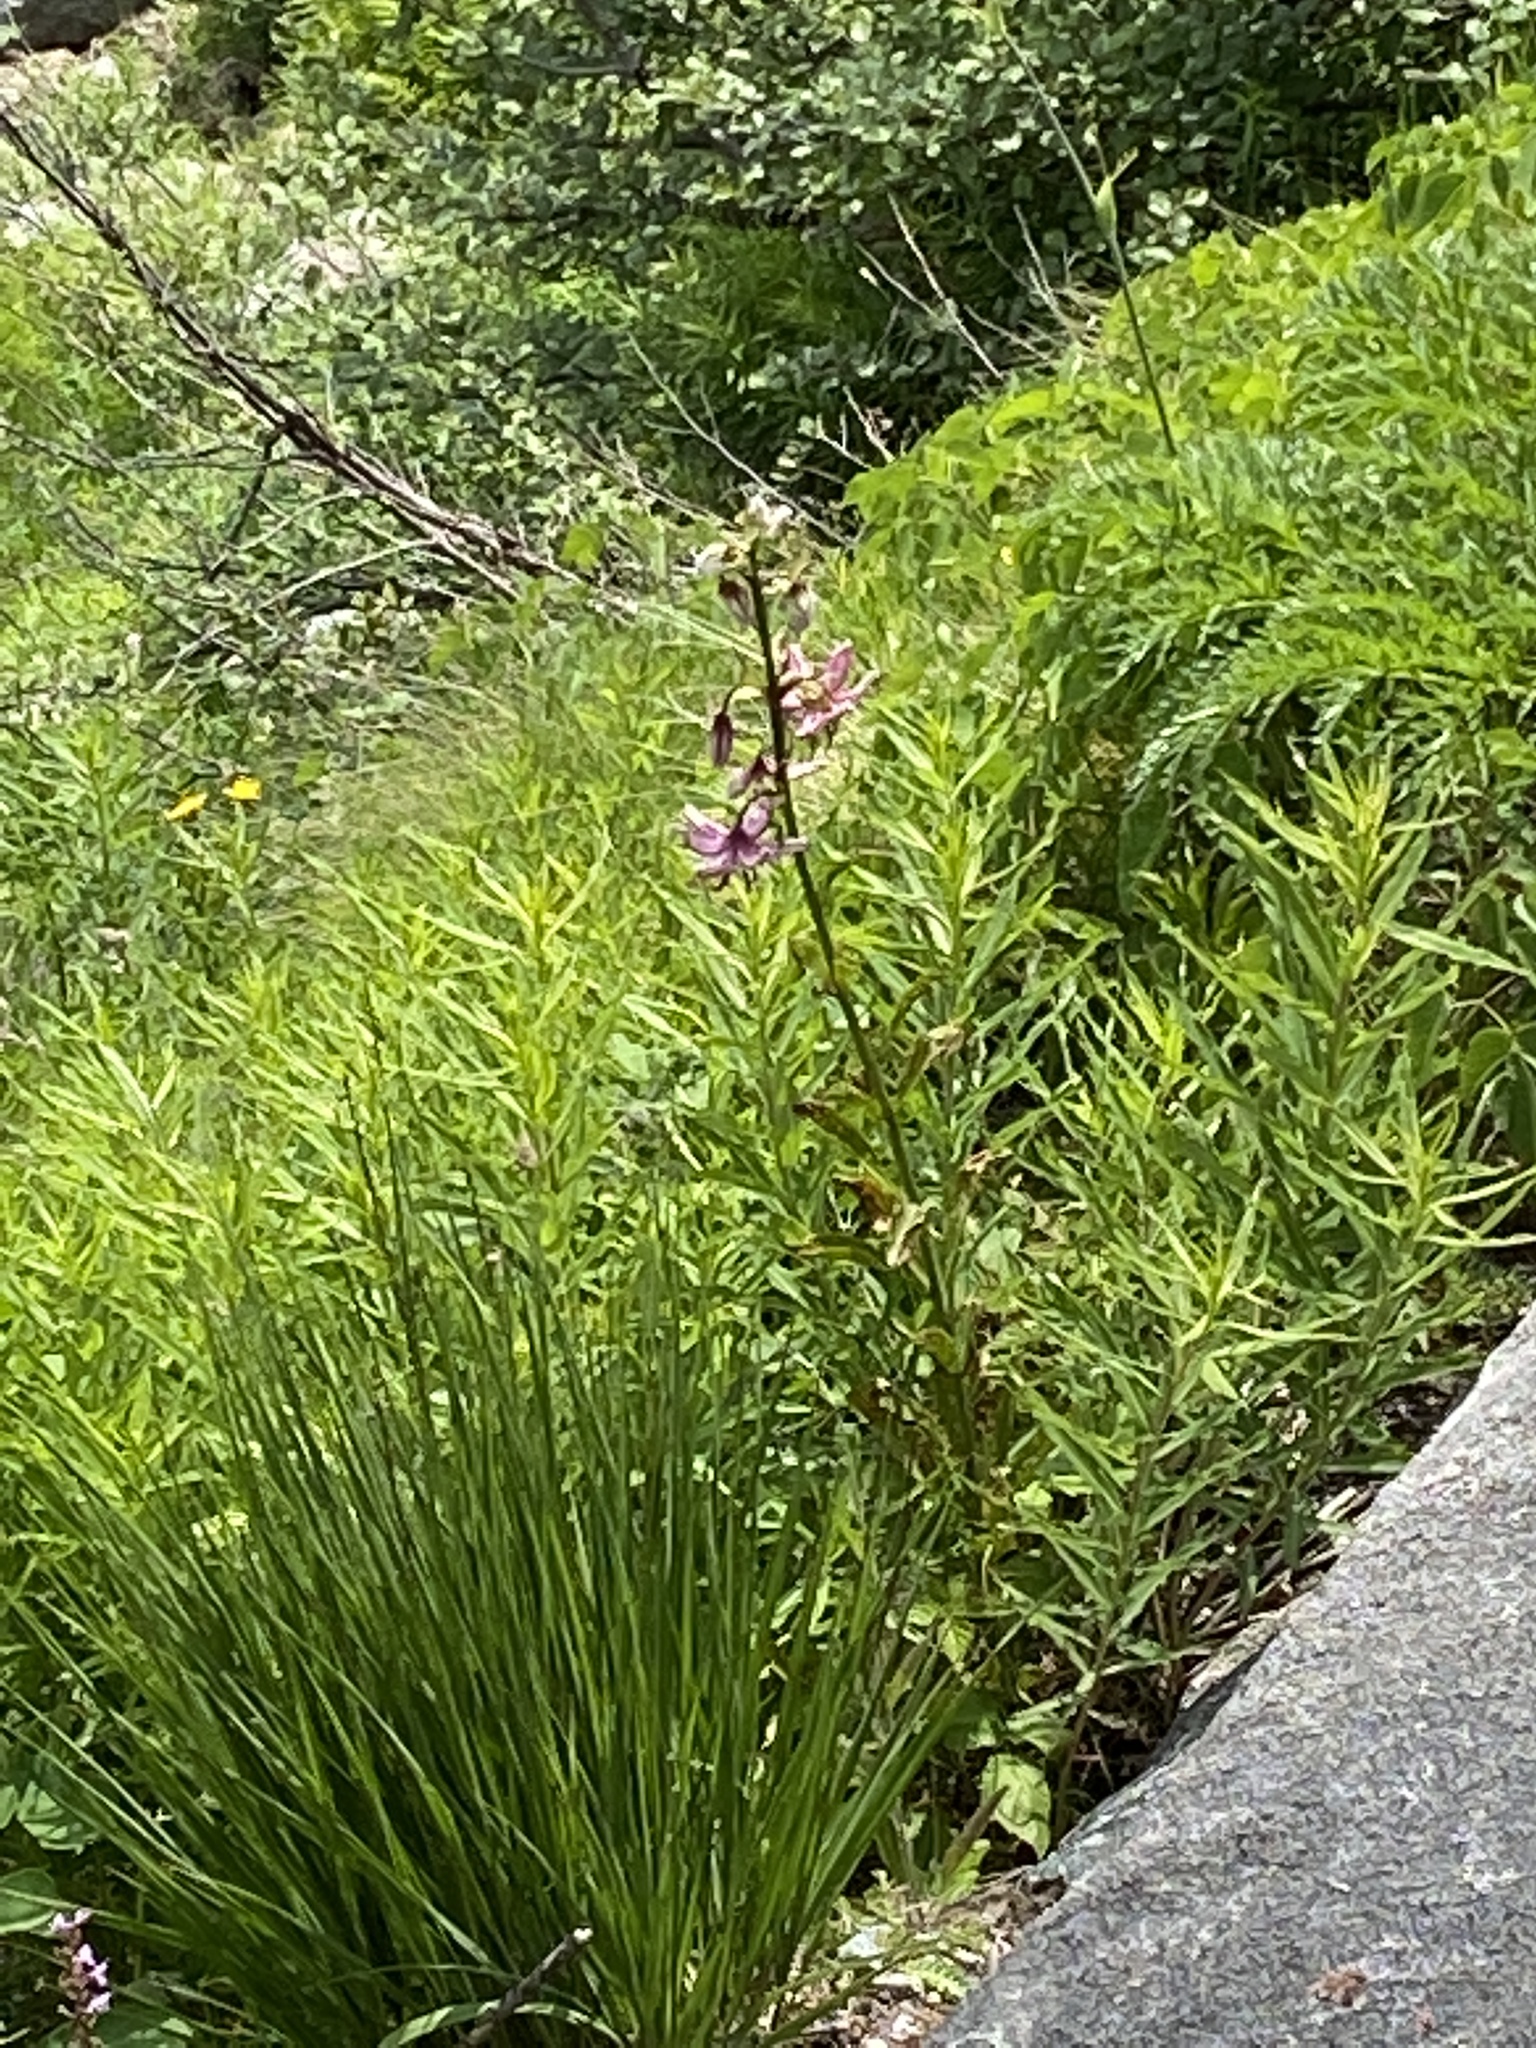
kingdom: Plantae
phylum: Tracheophyta
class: Liliopsida
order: Liliales
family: Liliaceae
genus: Lilium
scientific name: Lilium martagon
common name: Martagon lily
